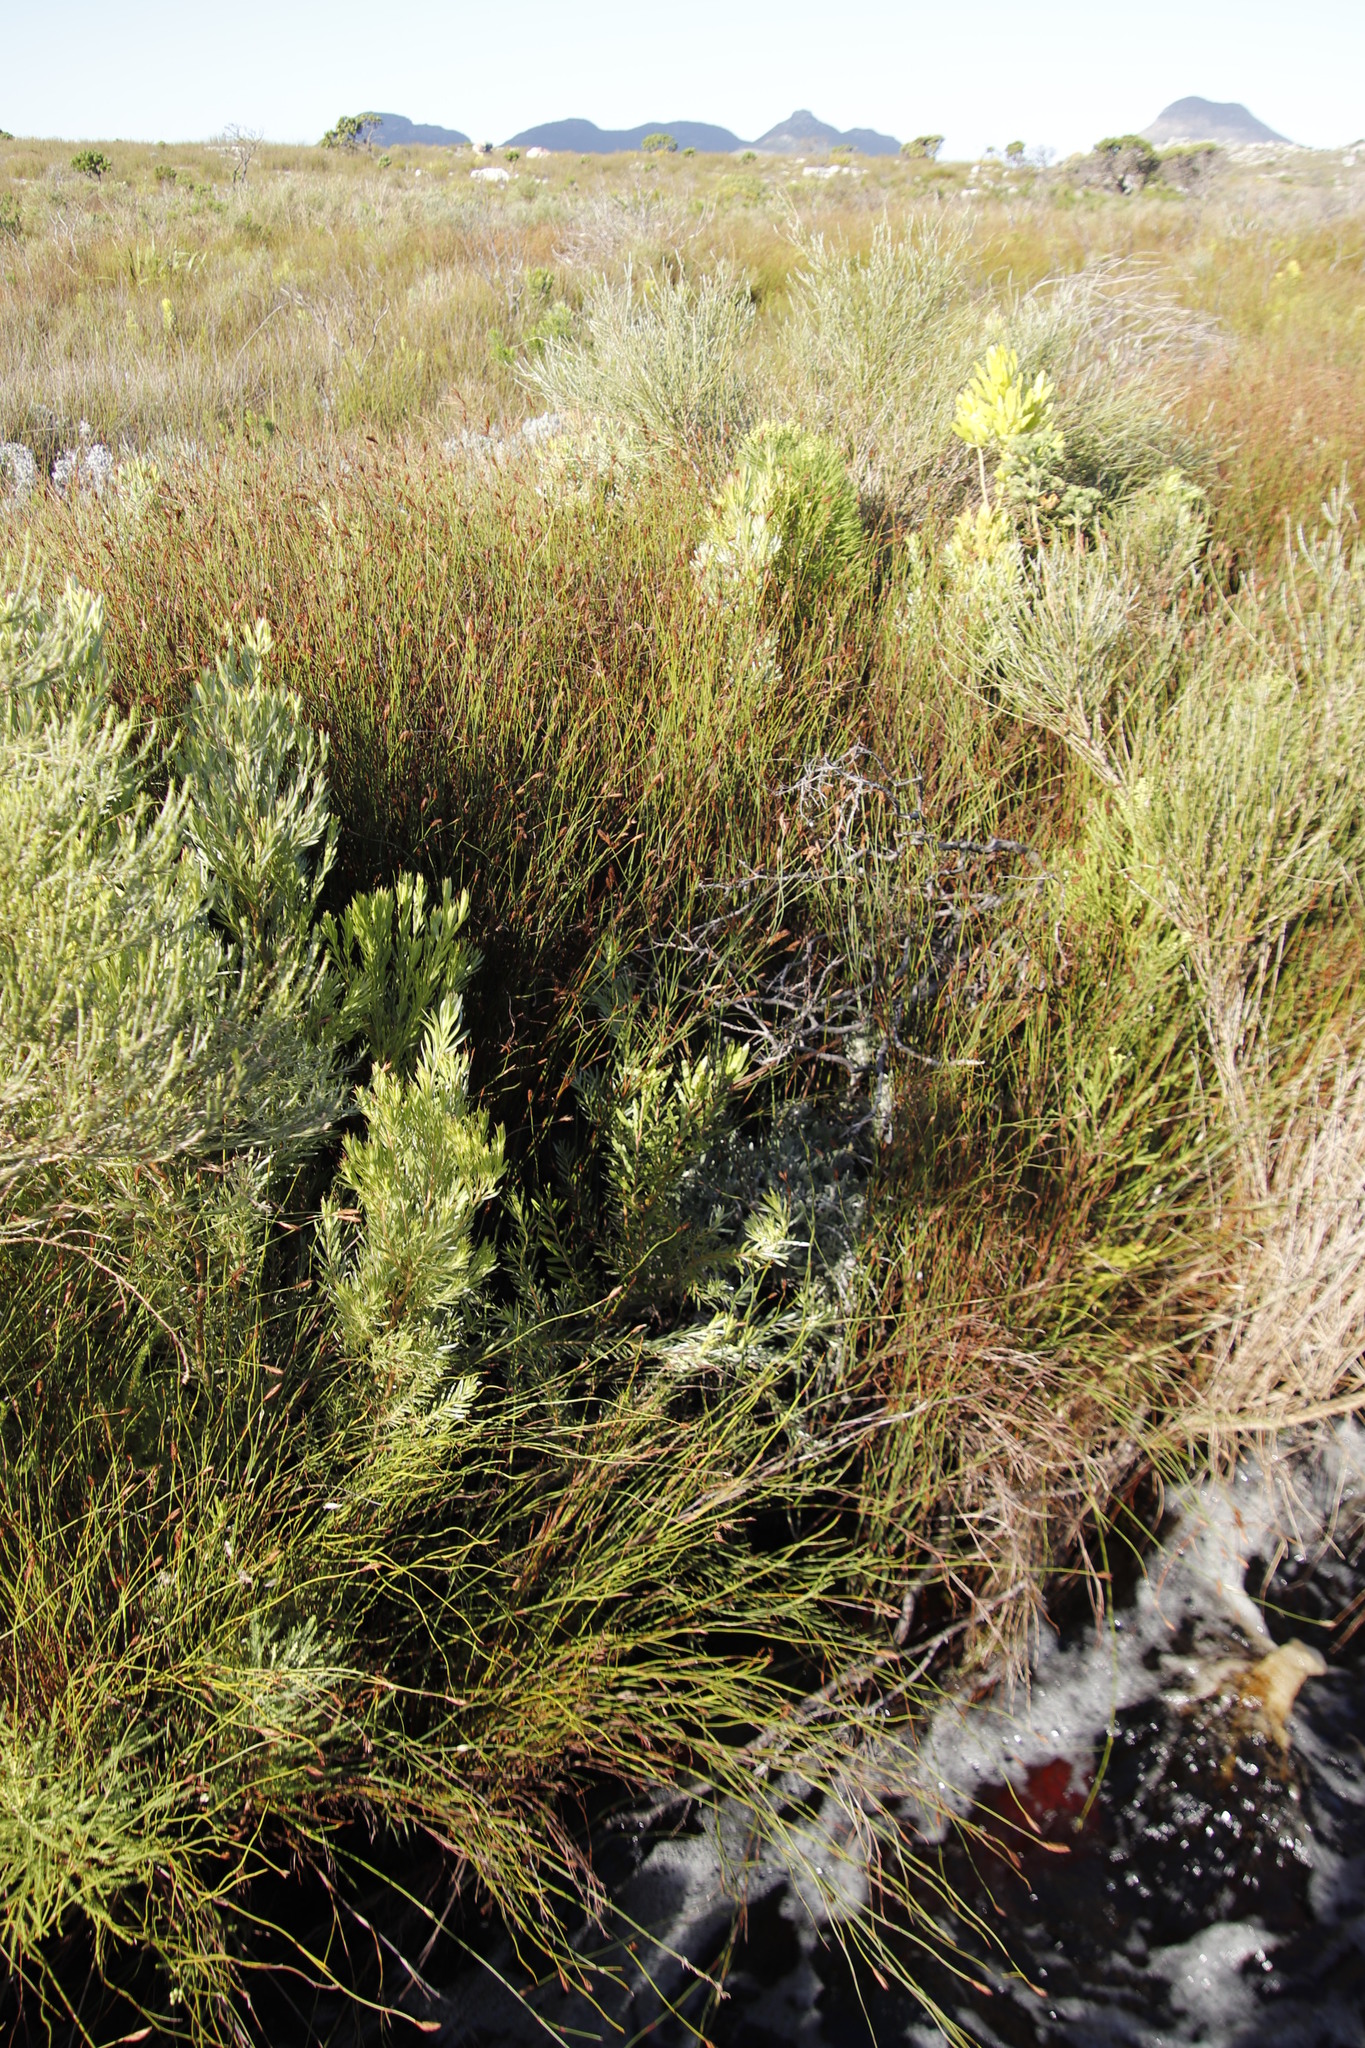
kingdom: Plantae
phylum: Tracheophyta
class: Magnoliopsida
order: Proteales
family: Proteaceae
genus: Leucadendron
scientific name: Leucadendron xanthoconus
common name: Sickle-leaf conebush
